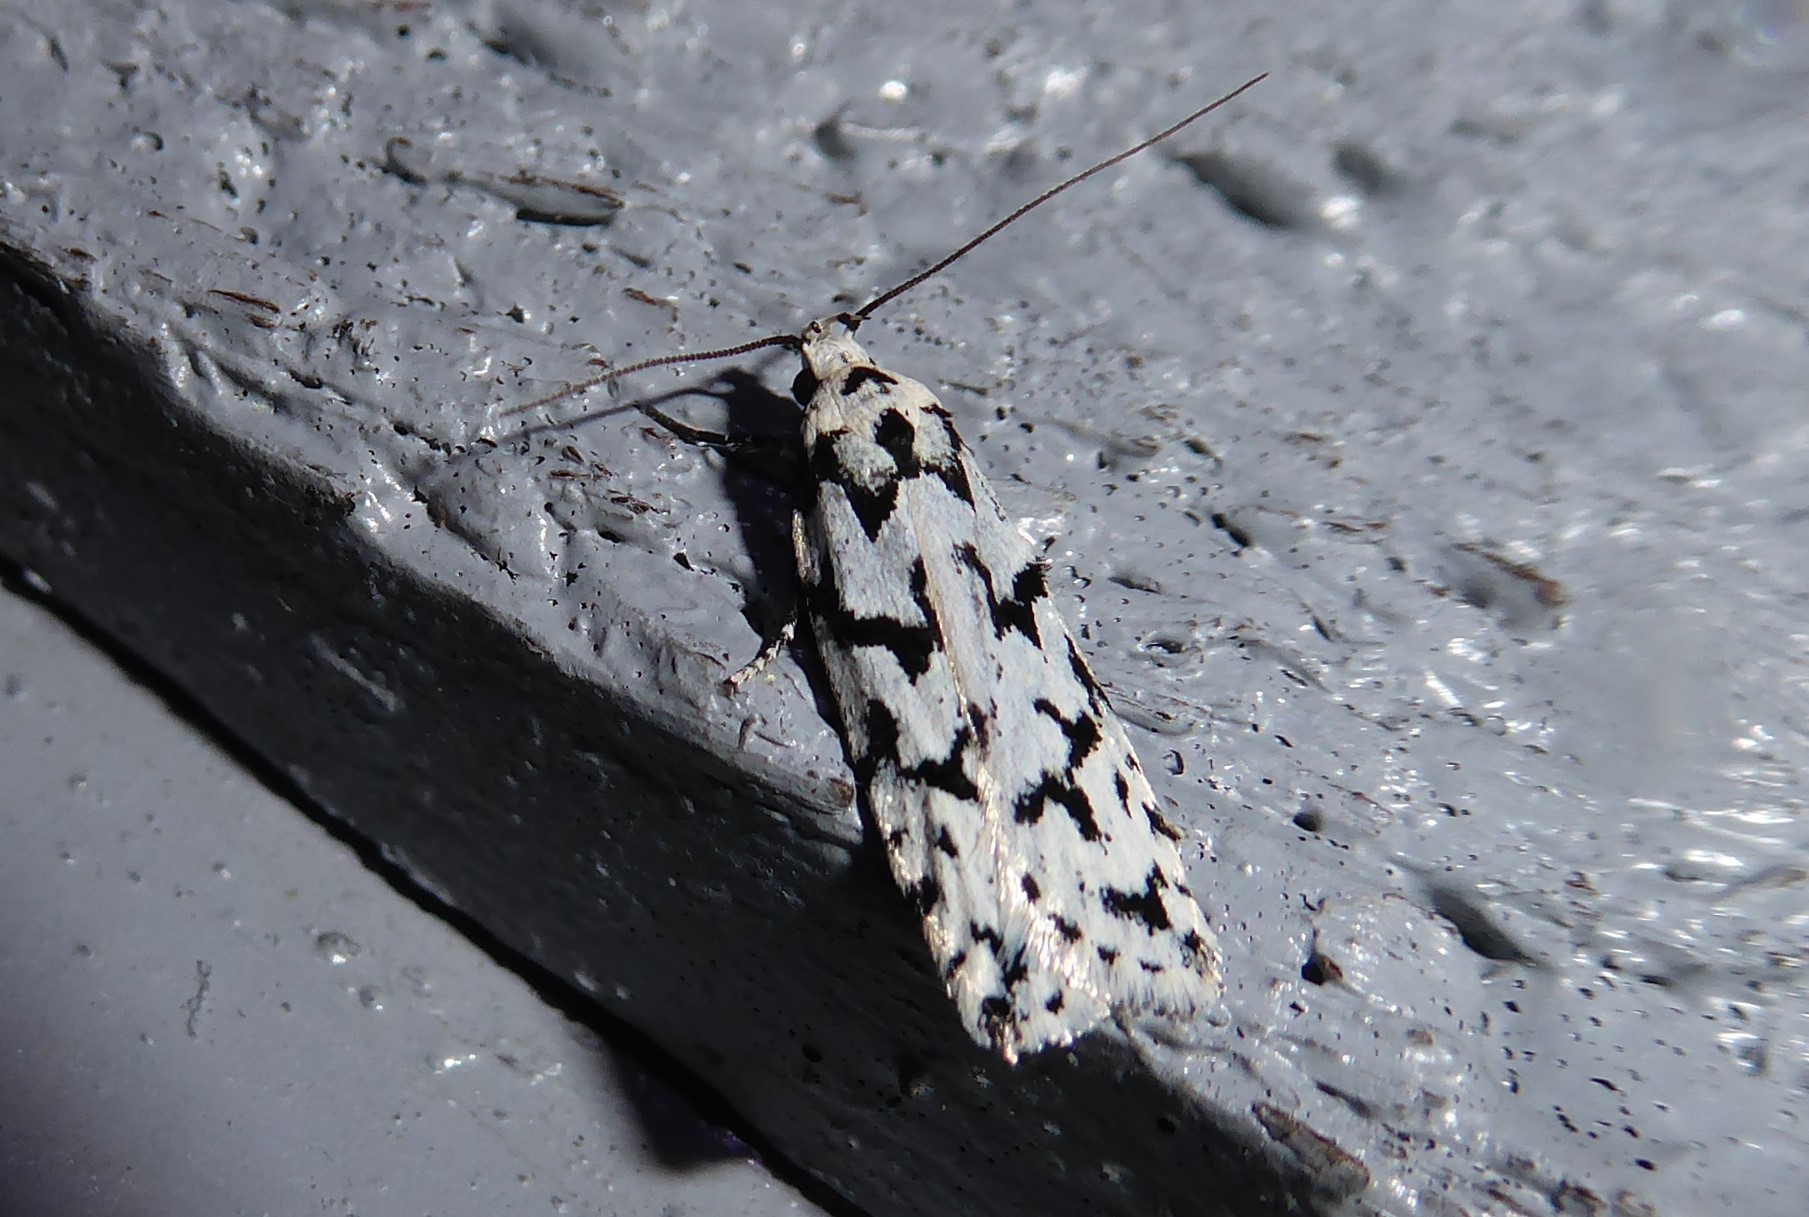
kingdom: Animalia
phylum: Arthropoda
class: Insecta
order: Lepidoptera
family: Oecophoridae
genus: Izatha
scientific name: Izatha katadiktya
